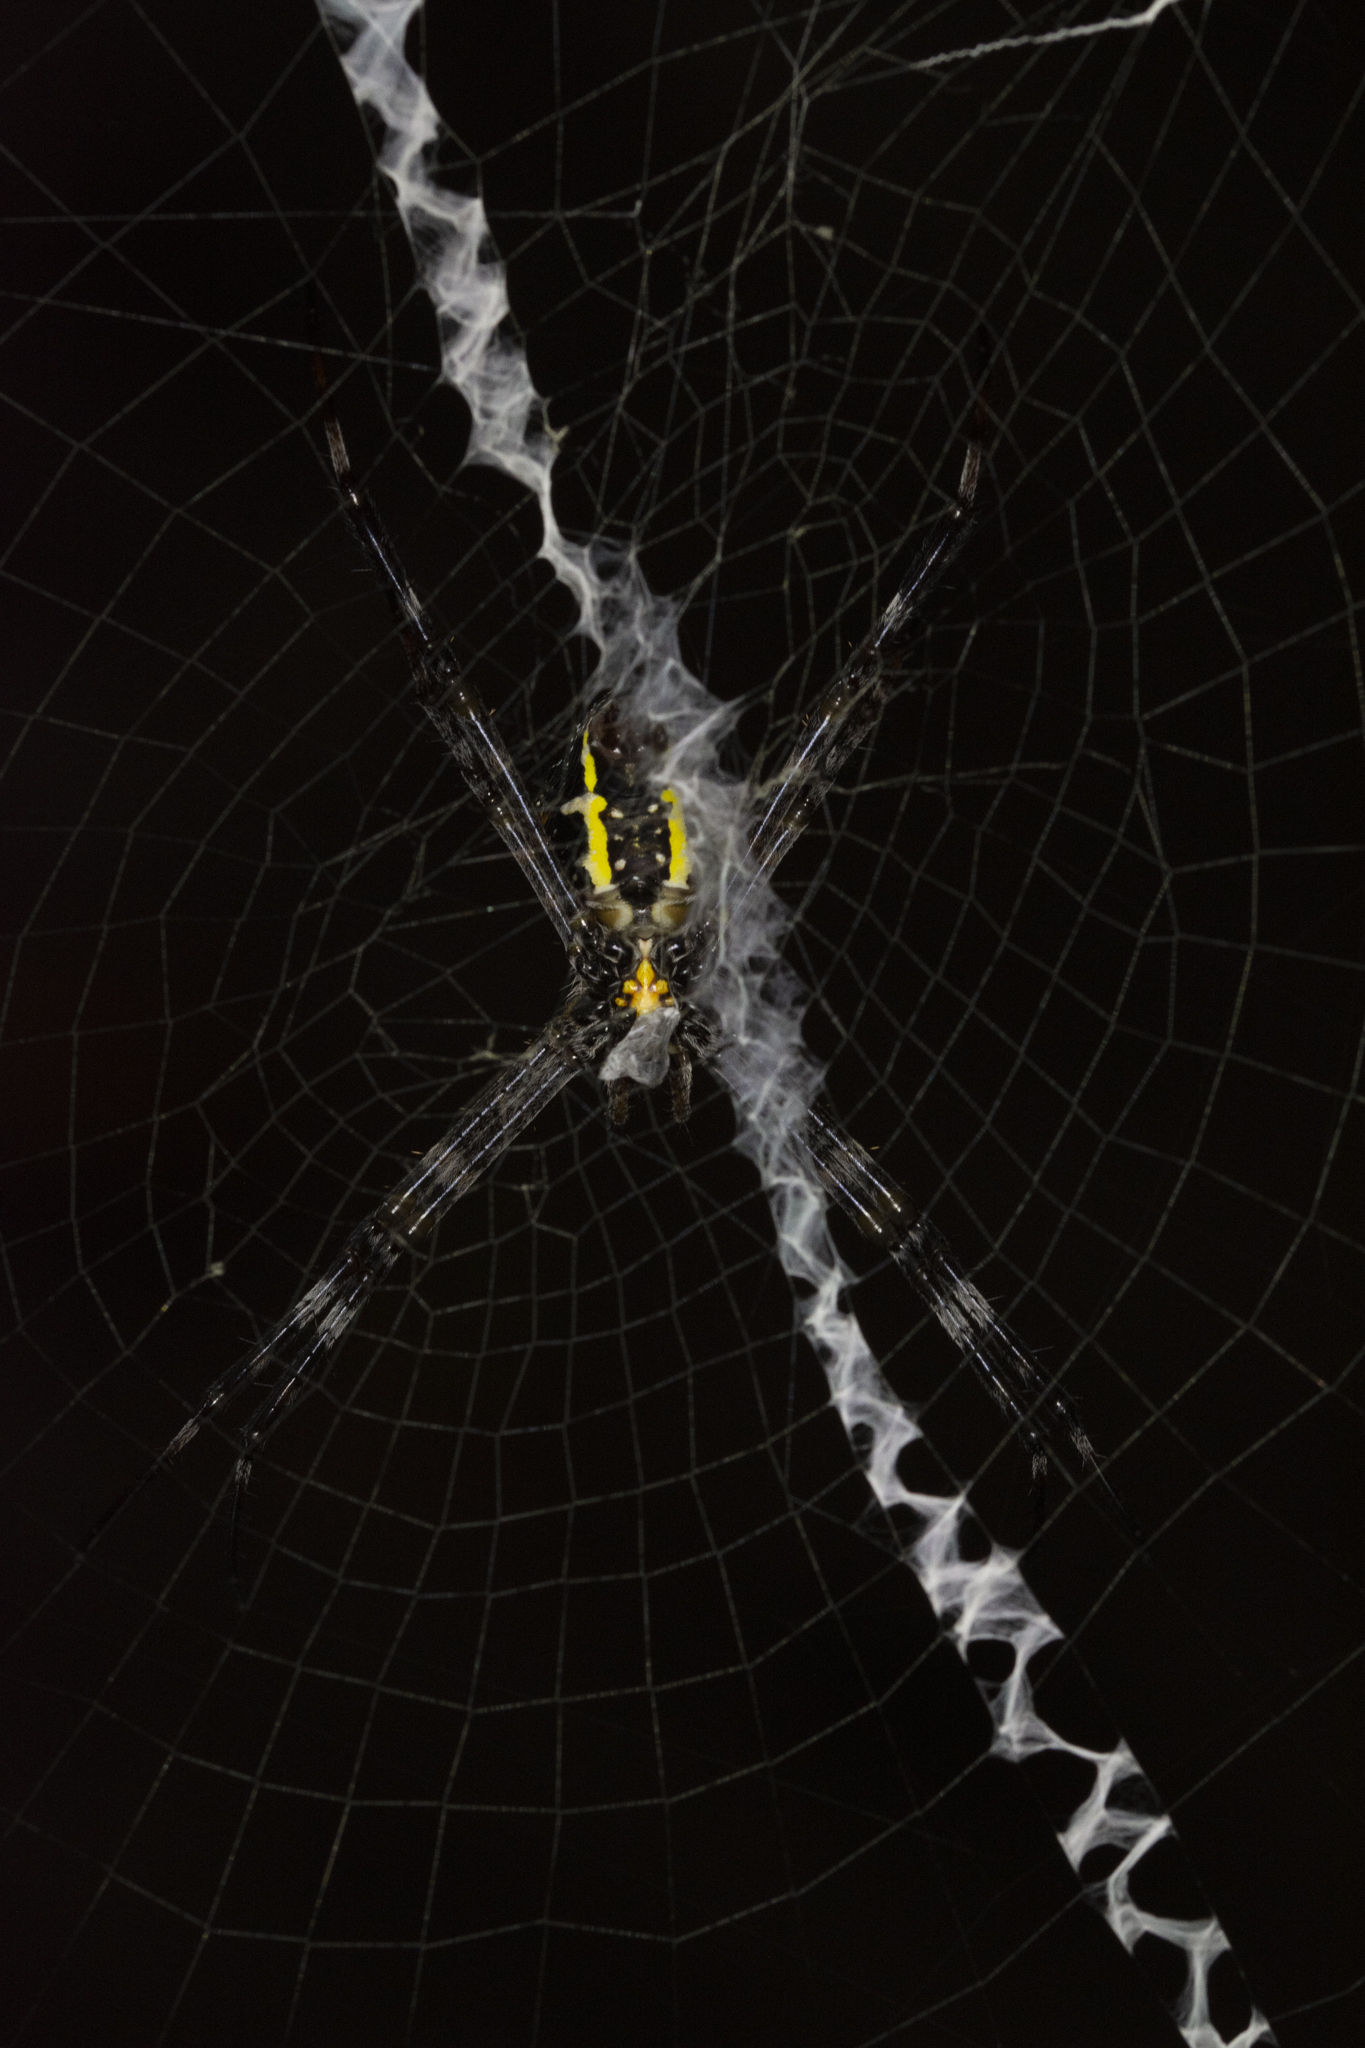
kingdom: Animalia
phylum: Arthropoda
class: Arachnida
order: Araneae
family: Araneidae
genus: Argiope
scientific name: Argiope appensa
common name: Garden spider
